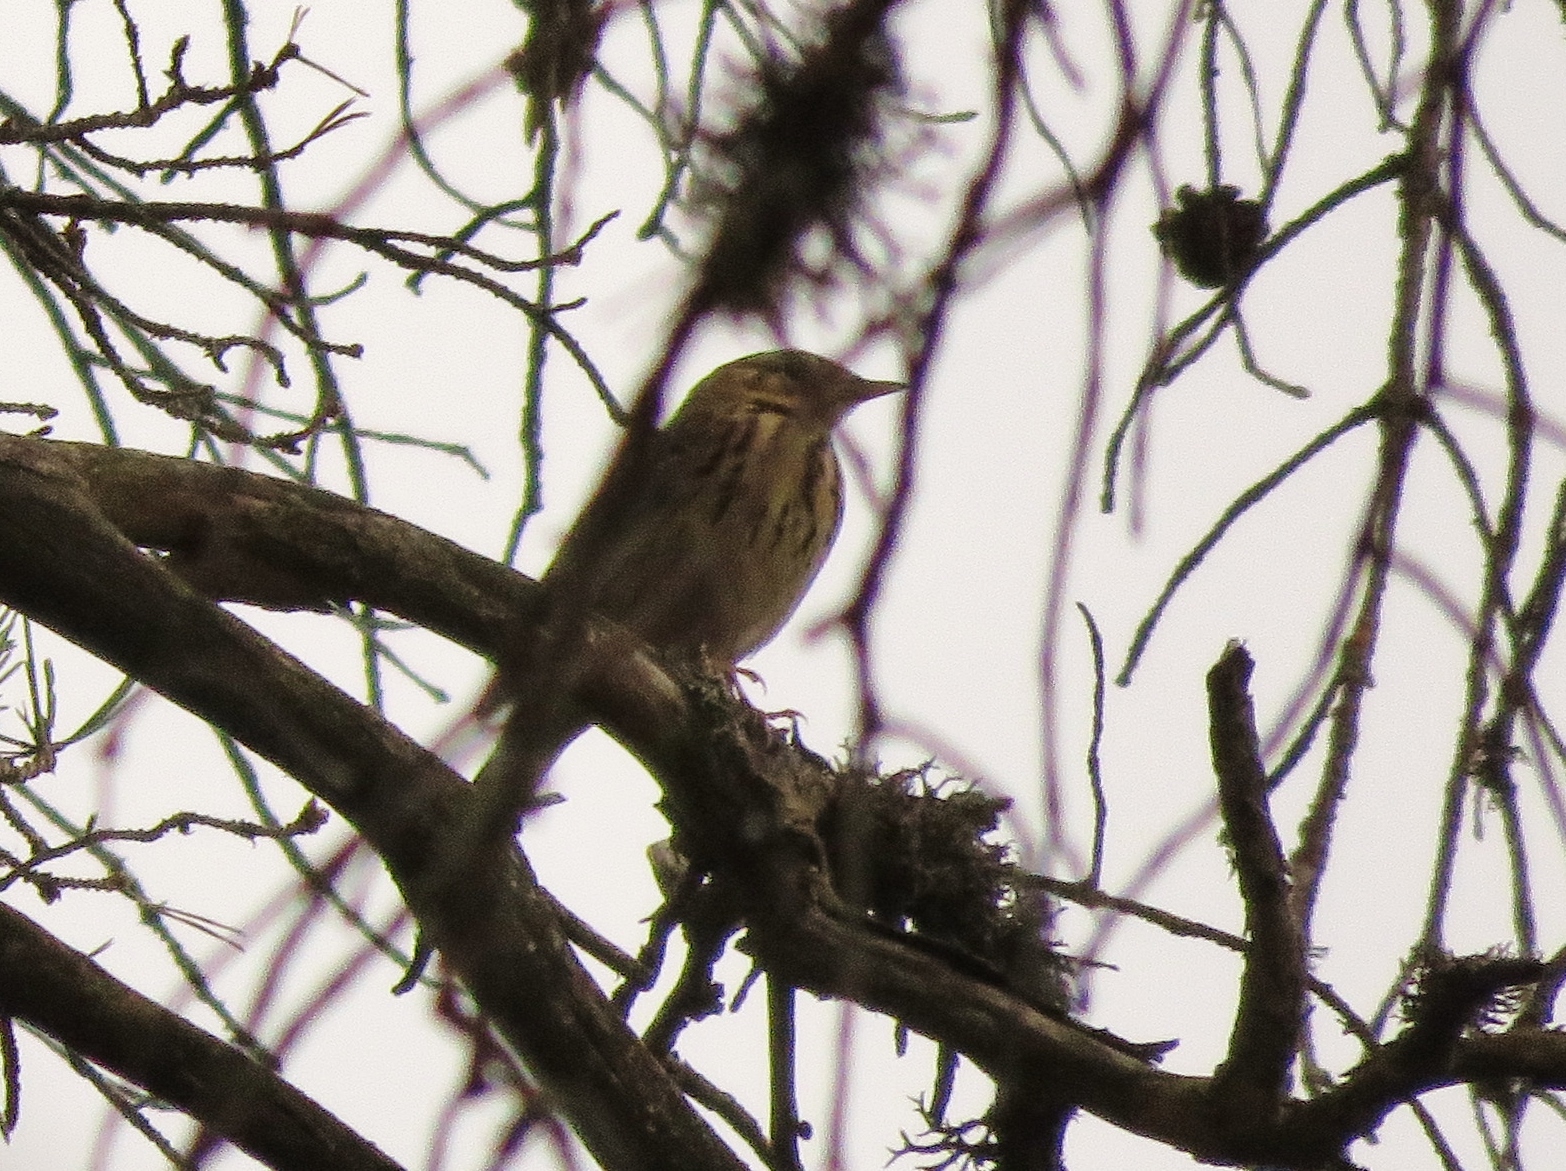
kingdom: Animalia
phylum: Chordata
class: Aves
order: Passeriformes
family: Motacillidae
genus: Anthus
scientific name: Anthus trivialis
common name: Tree pipit
